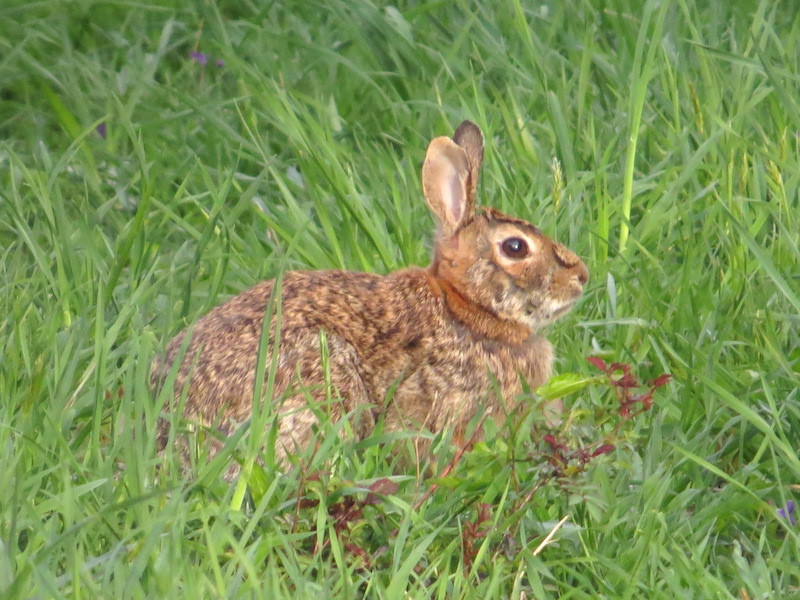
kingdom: Animalia
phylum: Chordata
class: Mammalia
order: Lagomorpha
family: Leporidae
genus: Sylvilagus
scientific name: Sylvilagus floridanus
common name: Eastern cottontail
